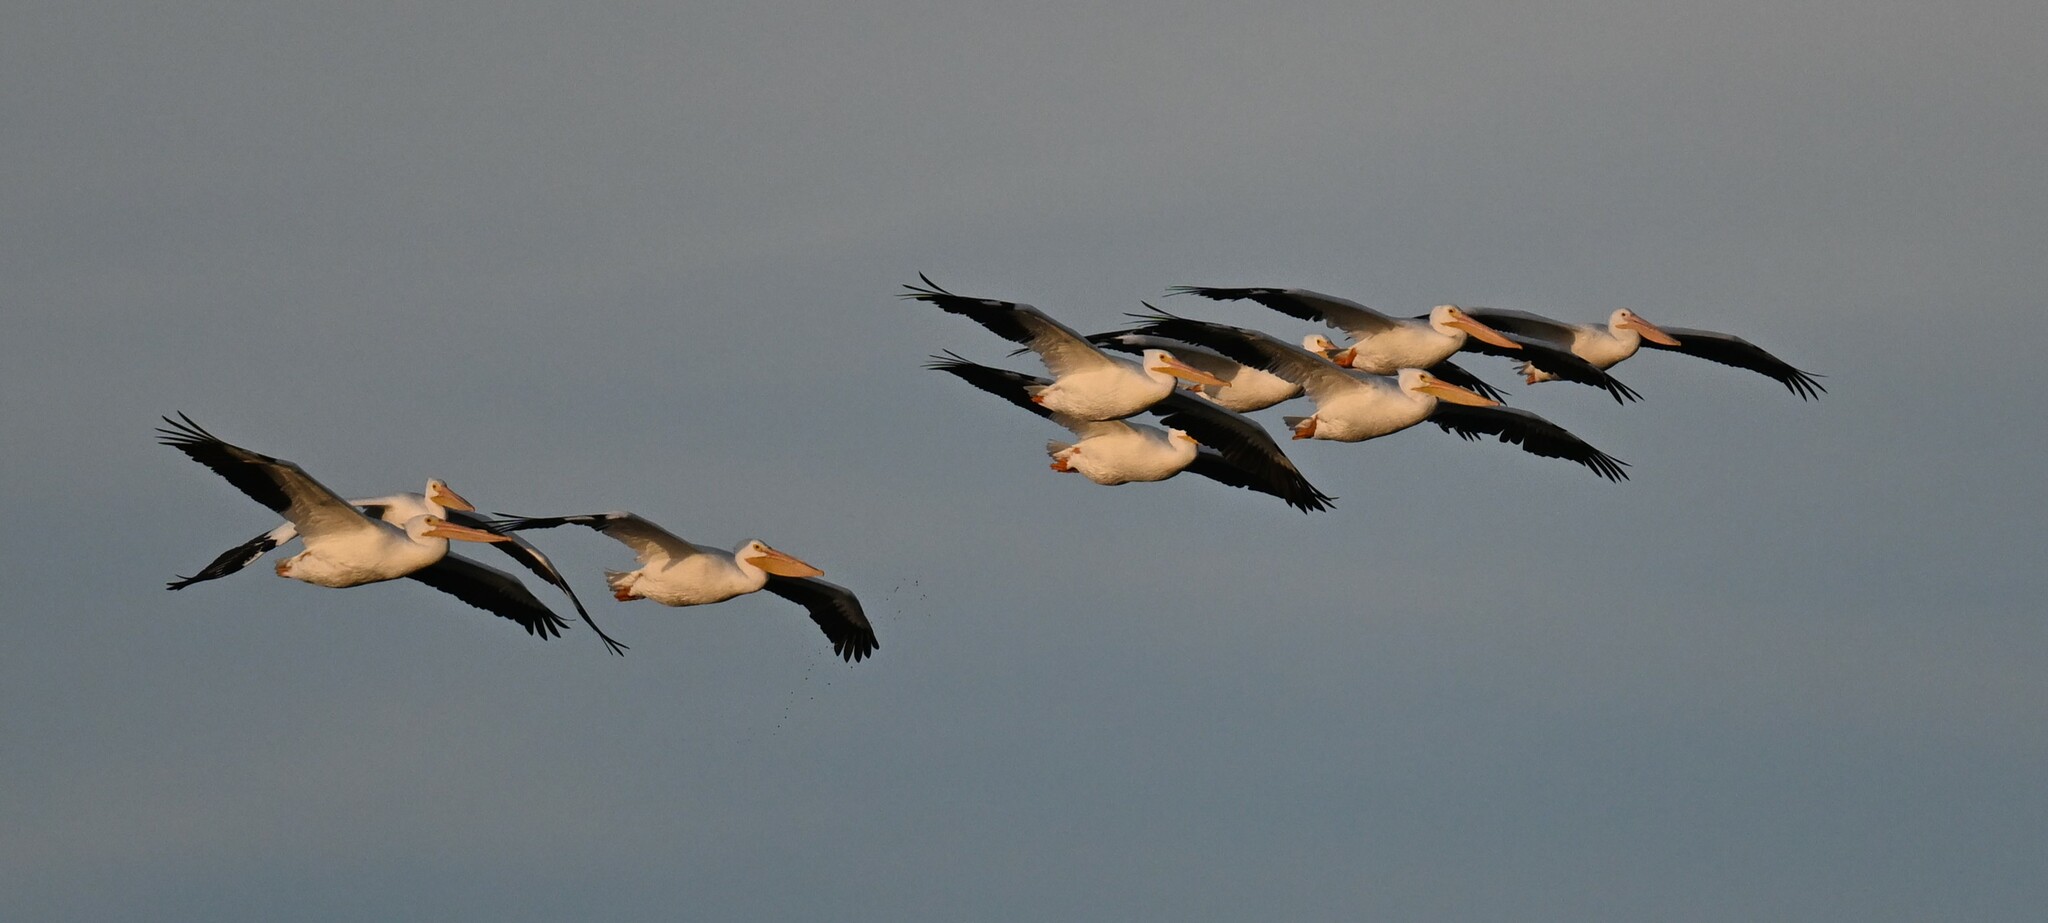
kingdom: Animalia
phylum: Chordata
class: Aves
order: Pelecaniformes
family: Pelecanidae
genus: Pelecanus
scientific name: Pelecanus erythrorhynchos
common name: American white pelican
